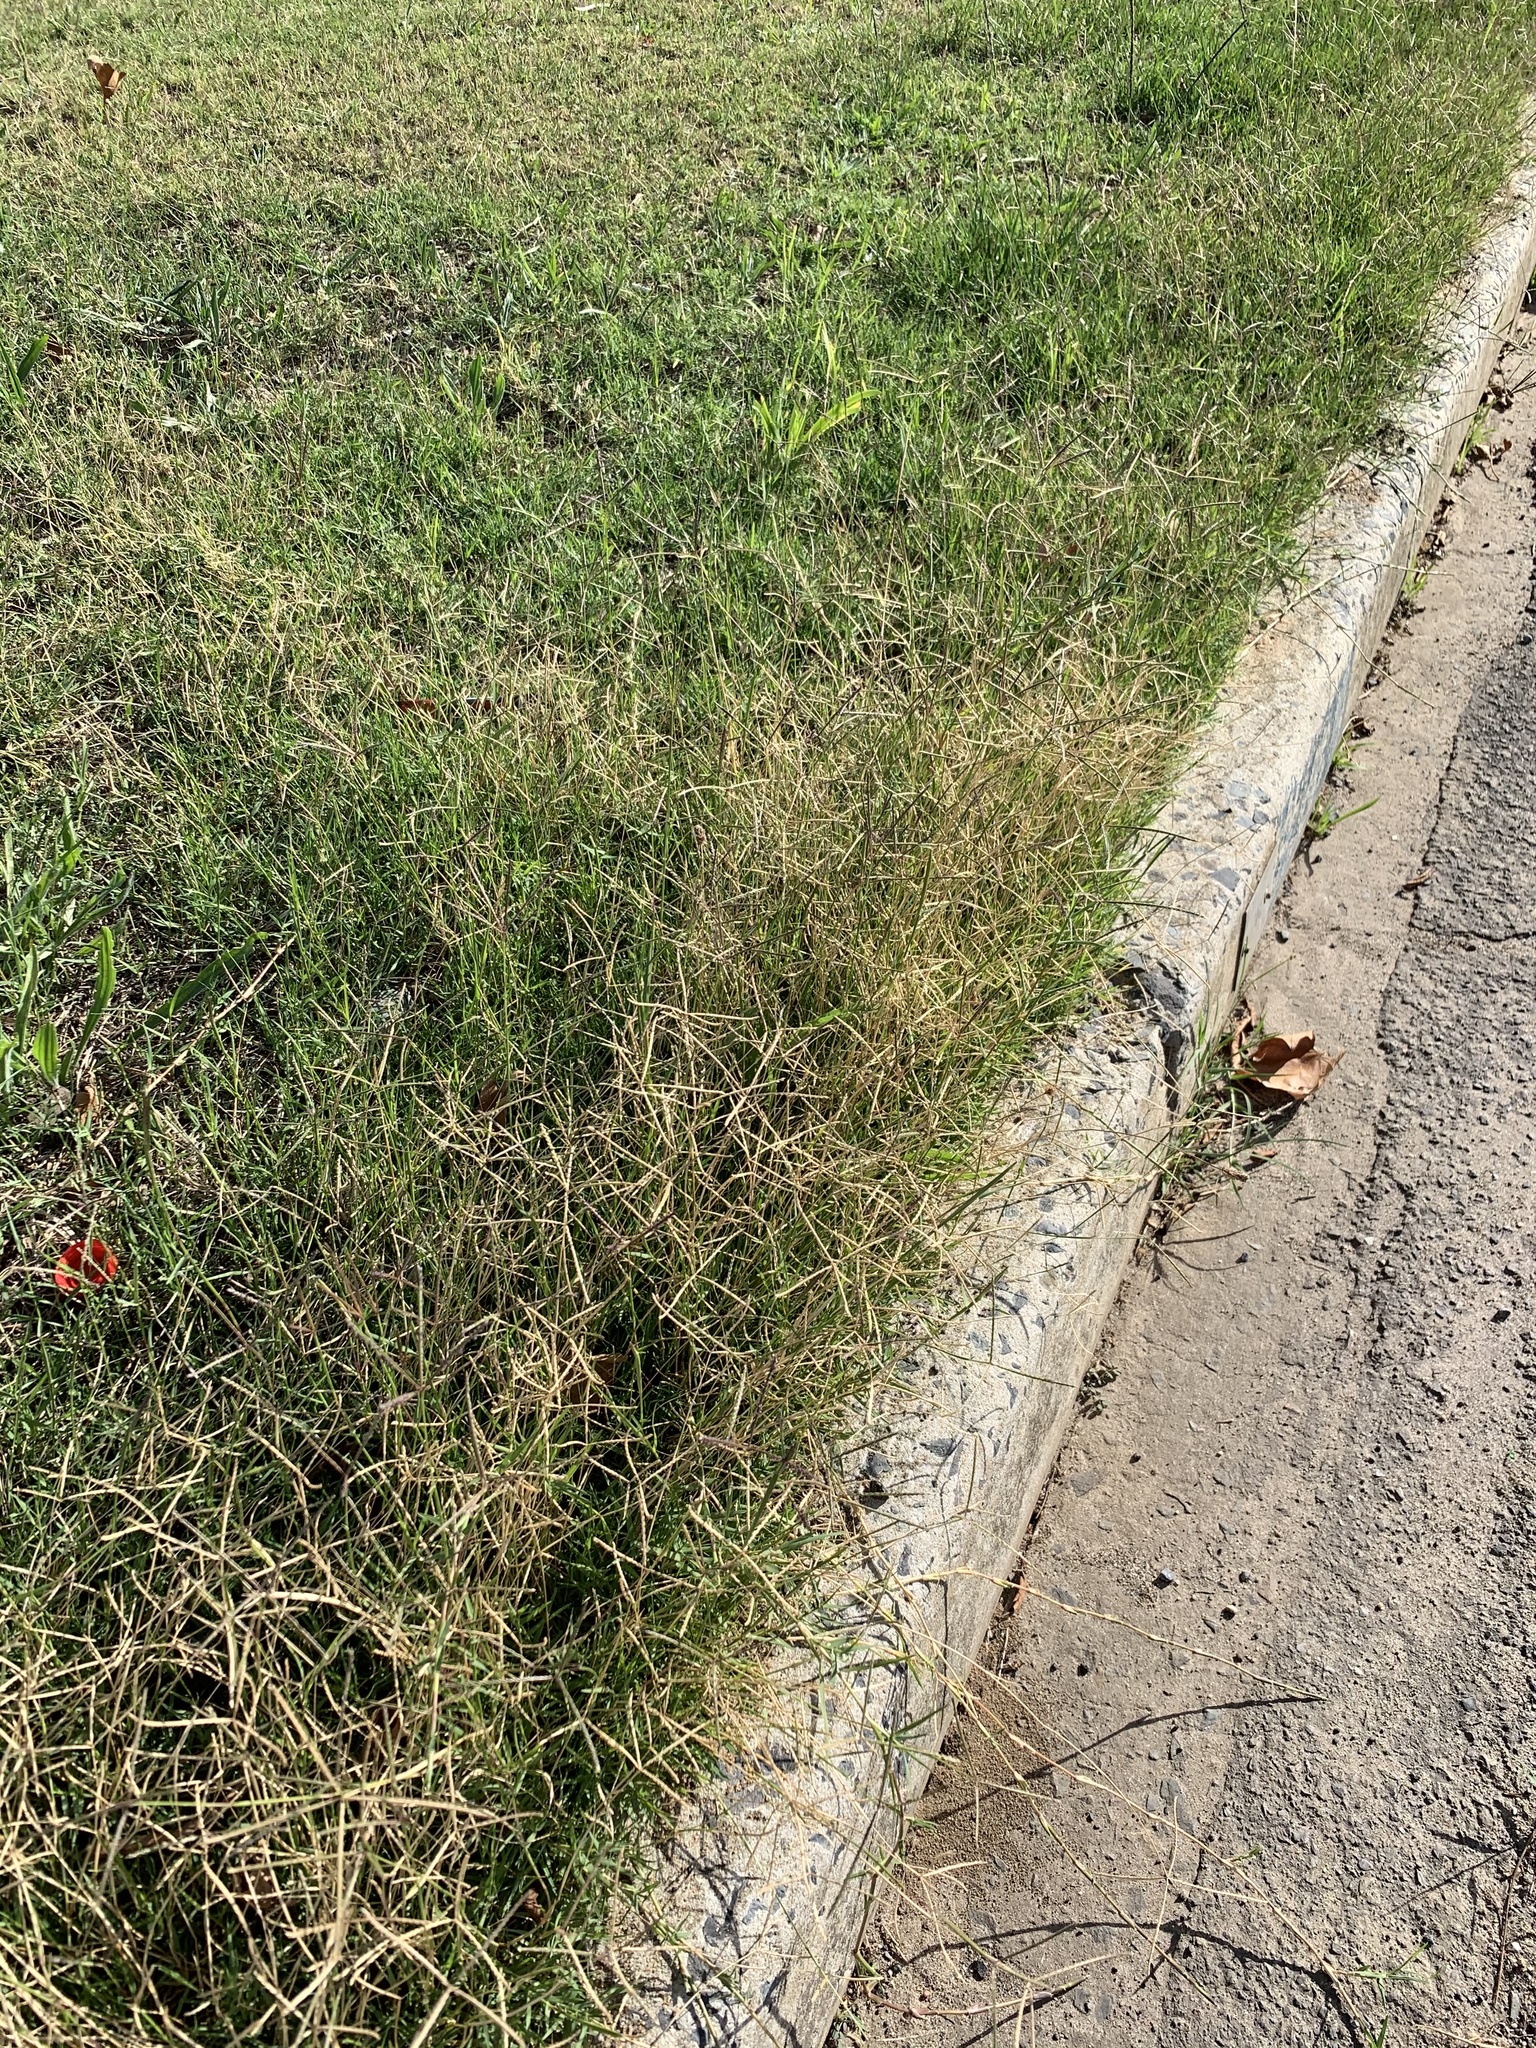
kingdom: Plantae
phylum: Tracheophyta
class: Liliopsida
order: Poales
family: Poaceae
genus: Cynodon
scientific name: Cynodon dactylon
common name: Bermuda grass
